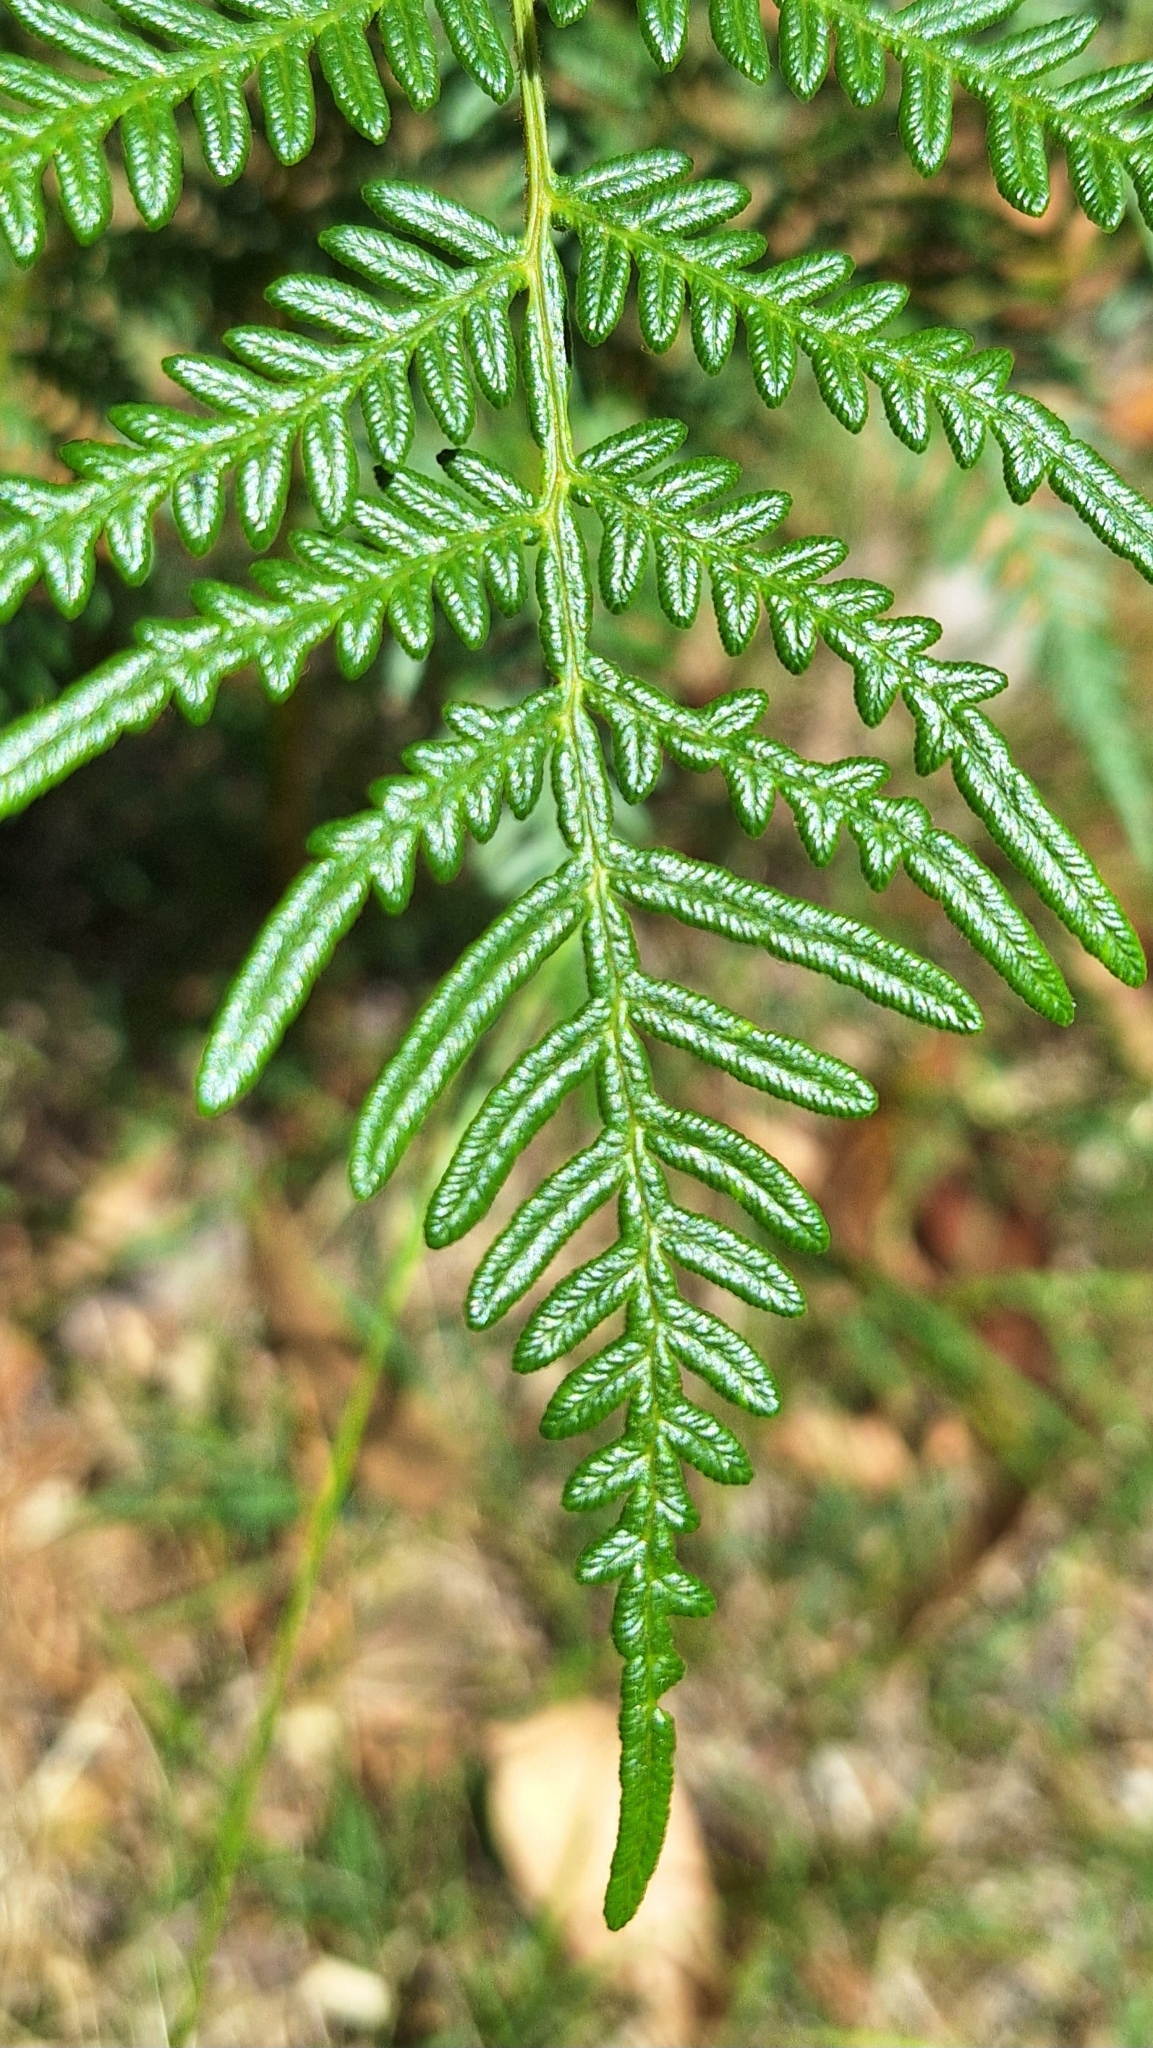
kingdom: Plantae
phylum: Tracheophyta
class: Polypodiopsida
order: Polypodiales
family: Dennstaedtiaceae
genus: Pteridium
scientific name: Pteridium esculentum
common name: Bracken fern
